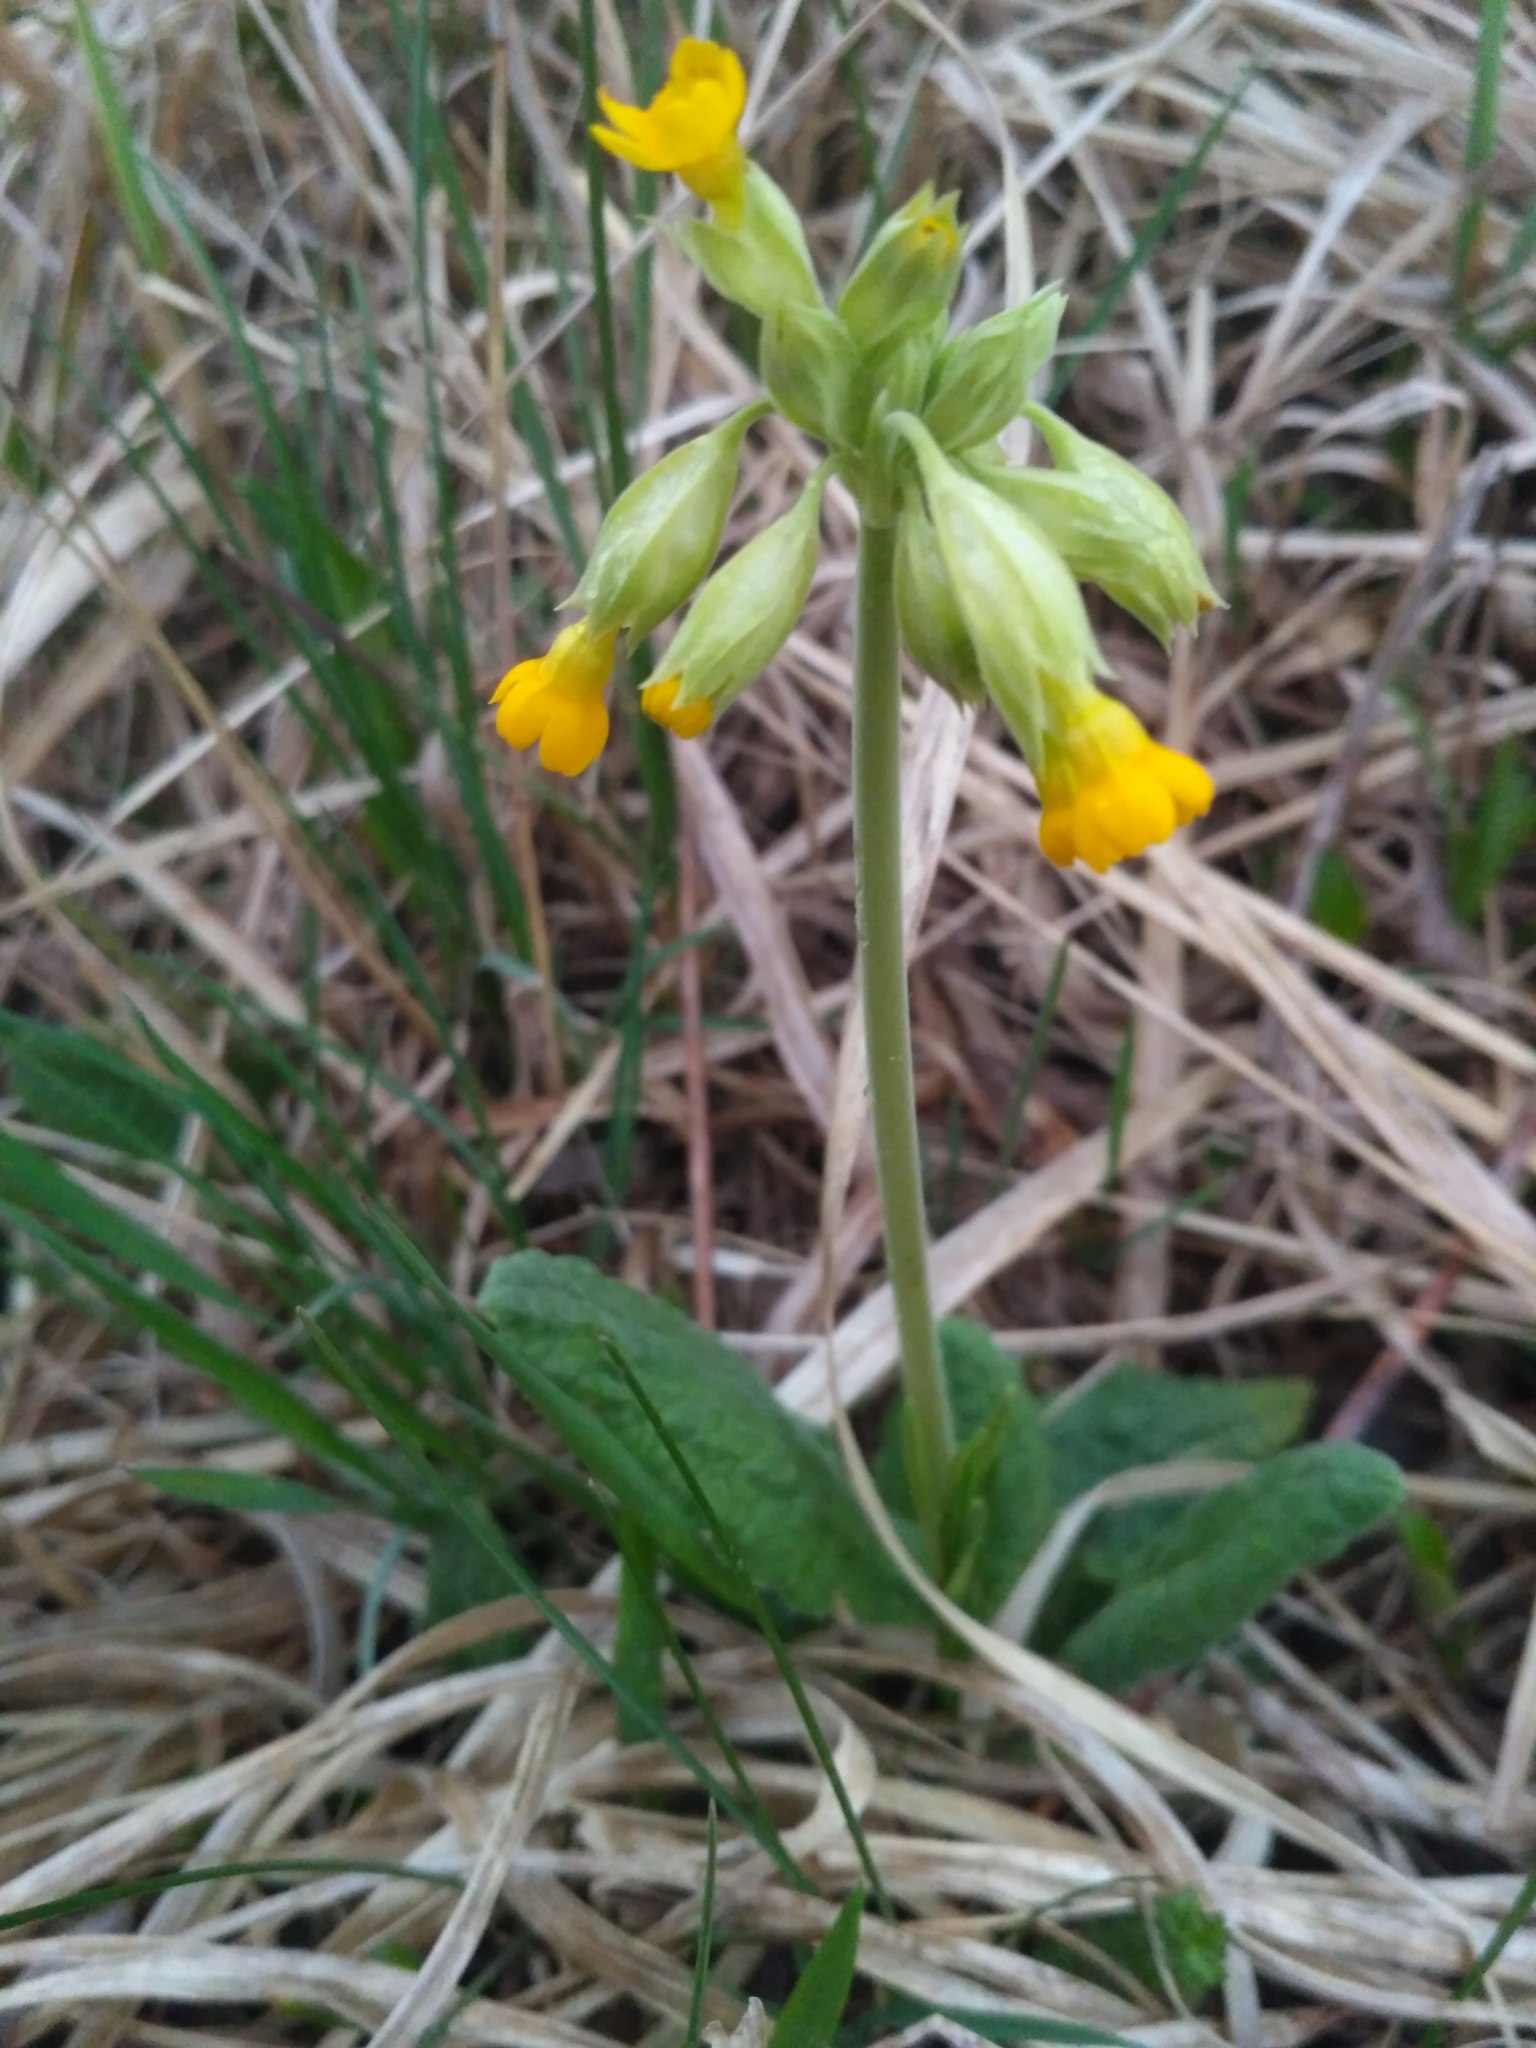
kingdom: Plantae
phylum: Tracheophyta
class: Magnoliopsida
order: Ericales
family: Primulaceae
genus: Primula
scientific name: Primula veris
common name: Cowslip
